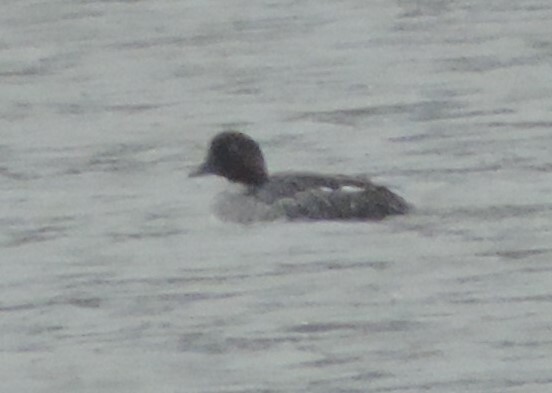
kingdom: Animalia
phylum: Chordata
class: Aves
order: Anseriformes
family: Anatidae
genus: Bucephala
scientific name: Bucephala clangula
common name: Common goldeneye
